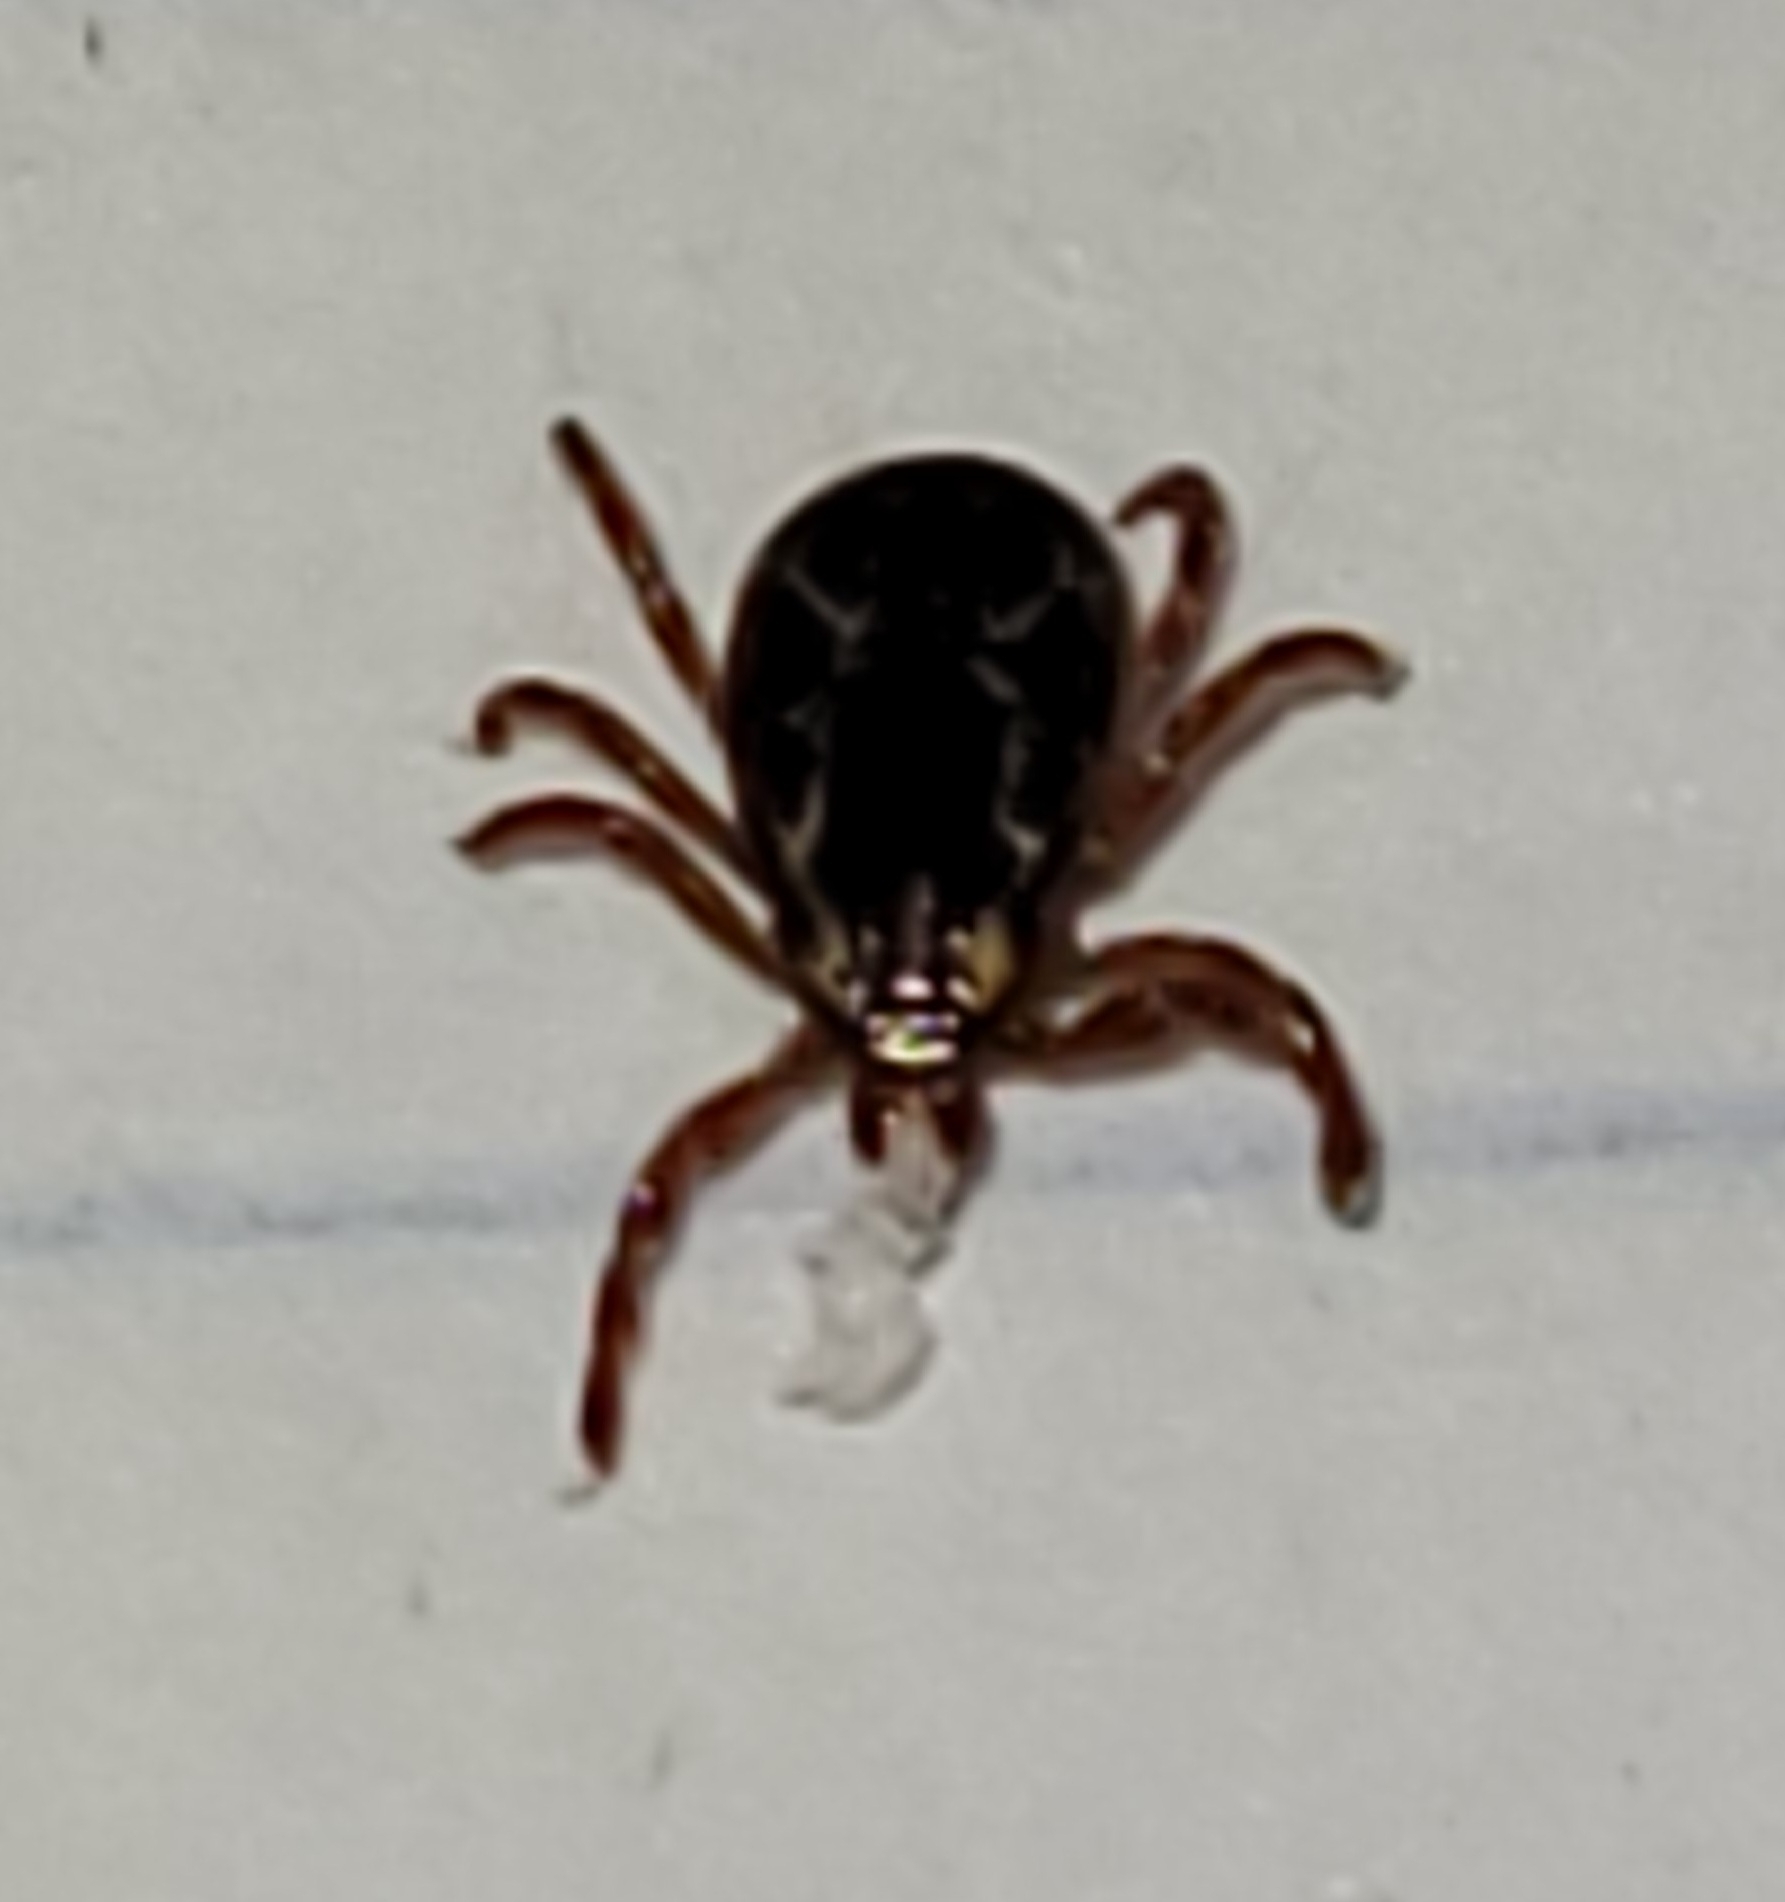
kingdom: Animalia
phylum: Arthropoda
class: Arachnida
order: Ixodida
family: Ixodidae
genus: Dermacentor
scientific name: Dermacentor variabilis
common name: American dog tick
